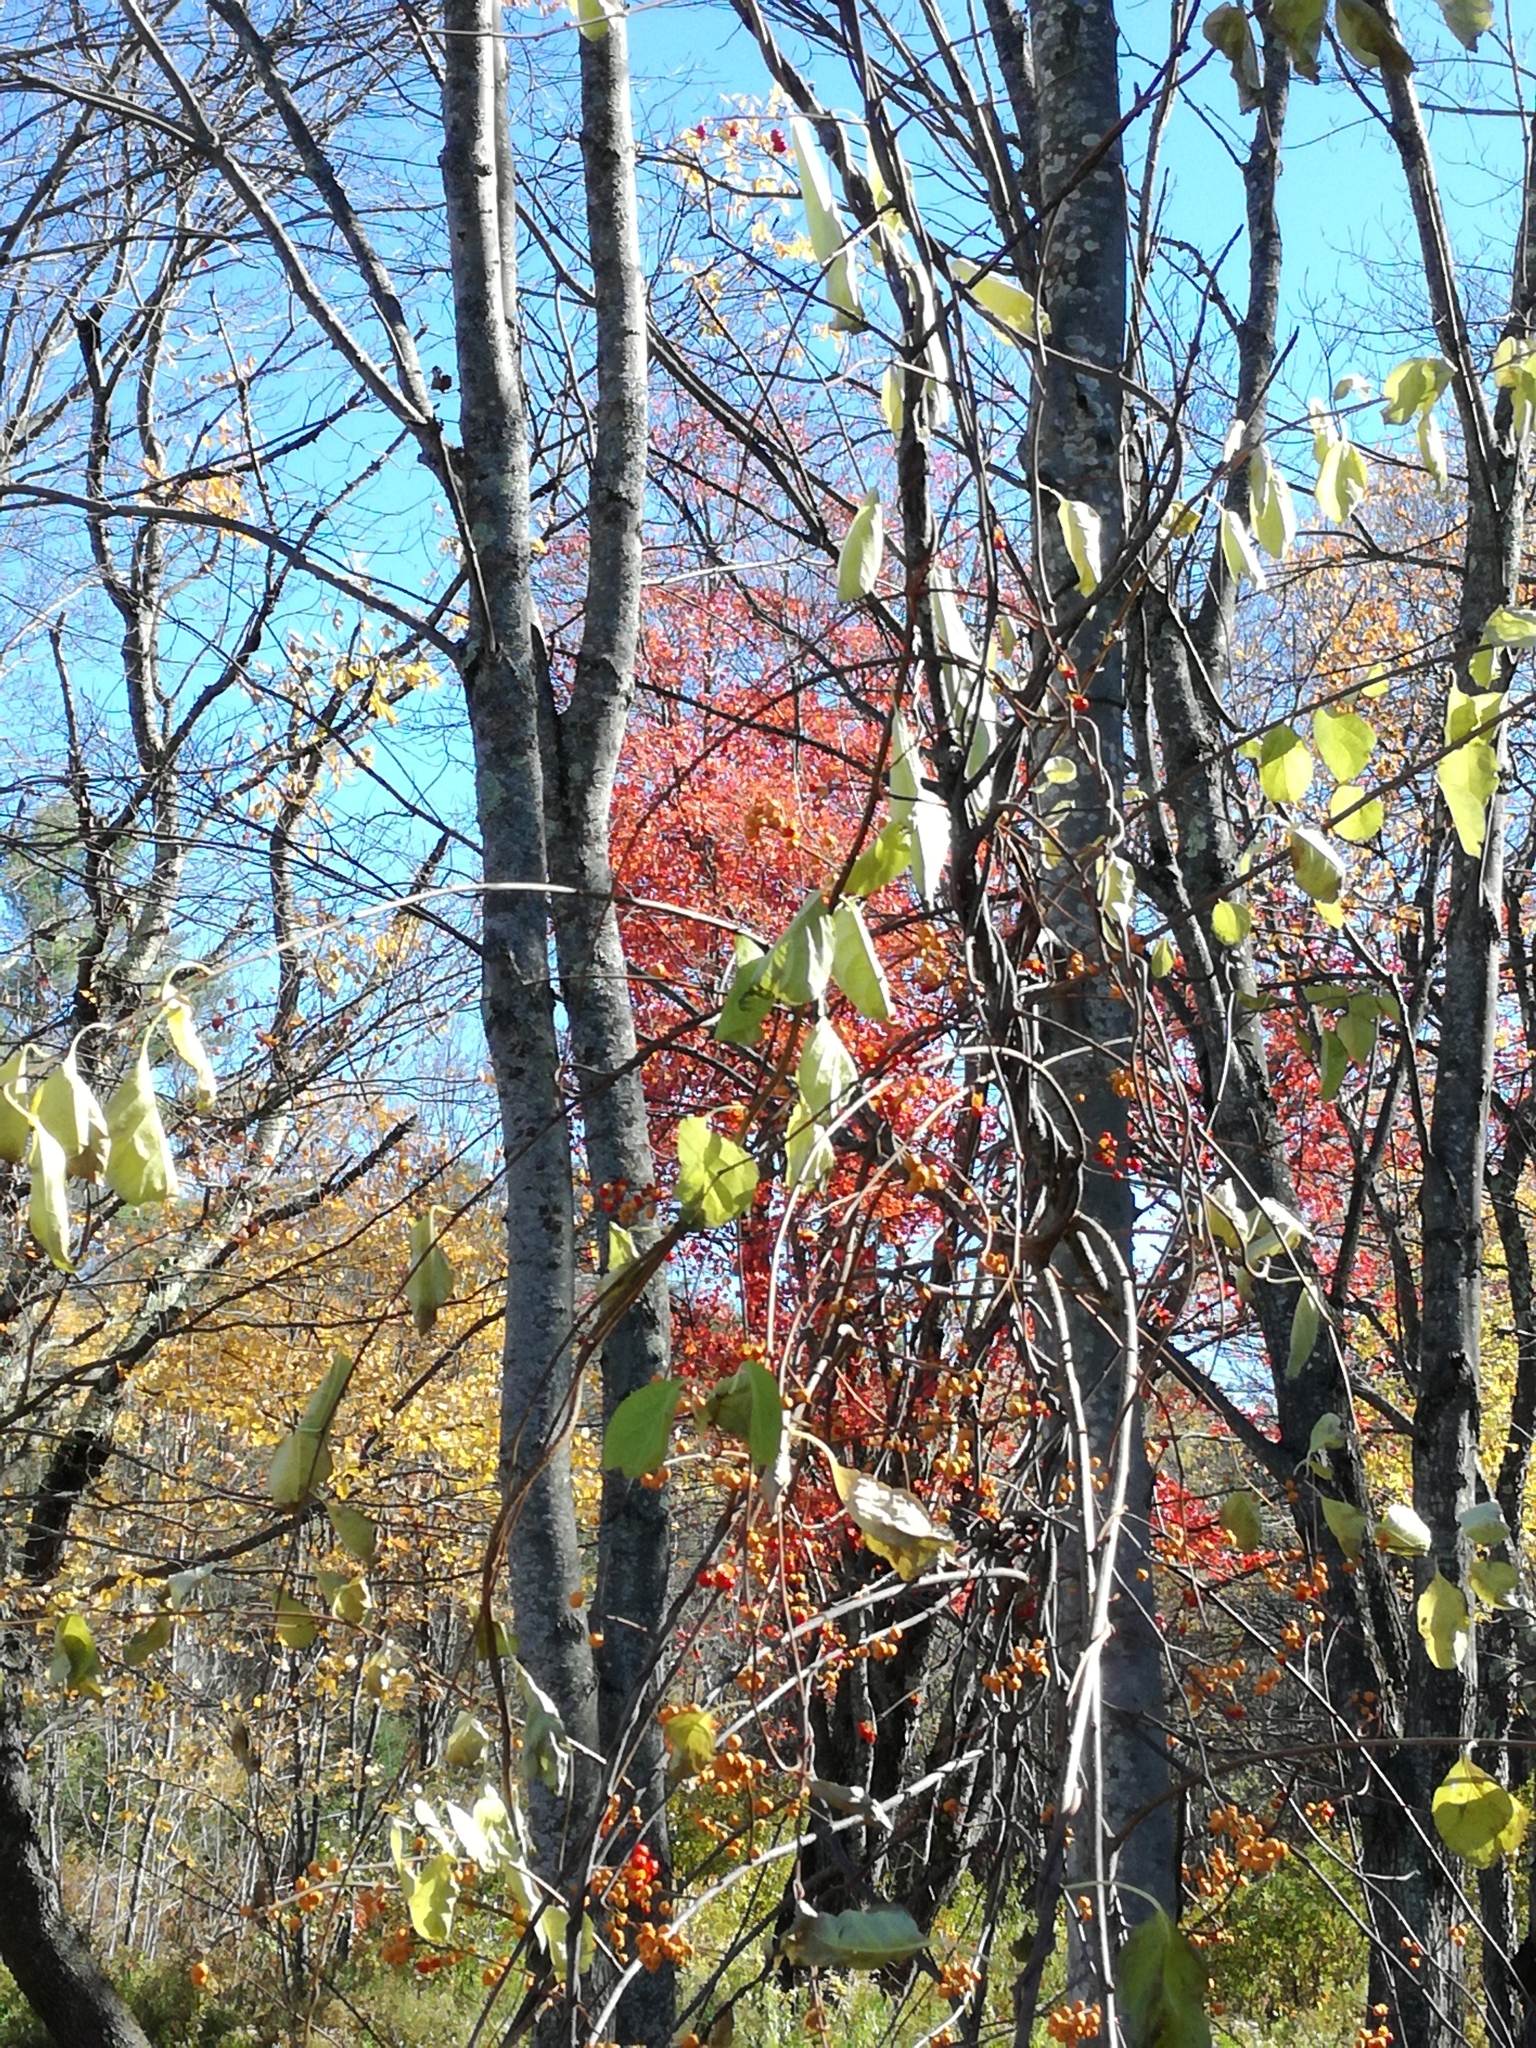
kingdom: Plantae
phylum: Tracheophyta
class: Magnoliopsida
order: Celastrales
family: Celastraceae
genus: Celastrus
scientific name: Celastrus orbiculatus
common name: Oriental bittersweet
